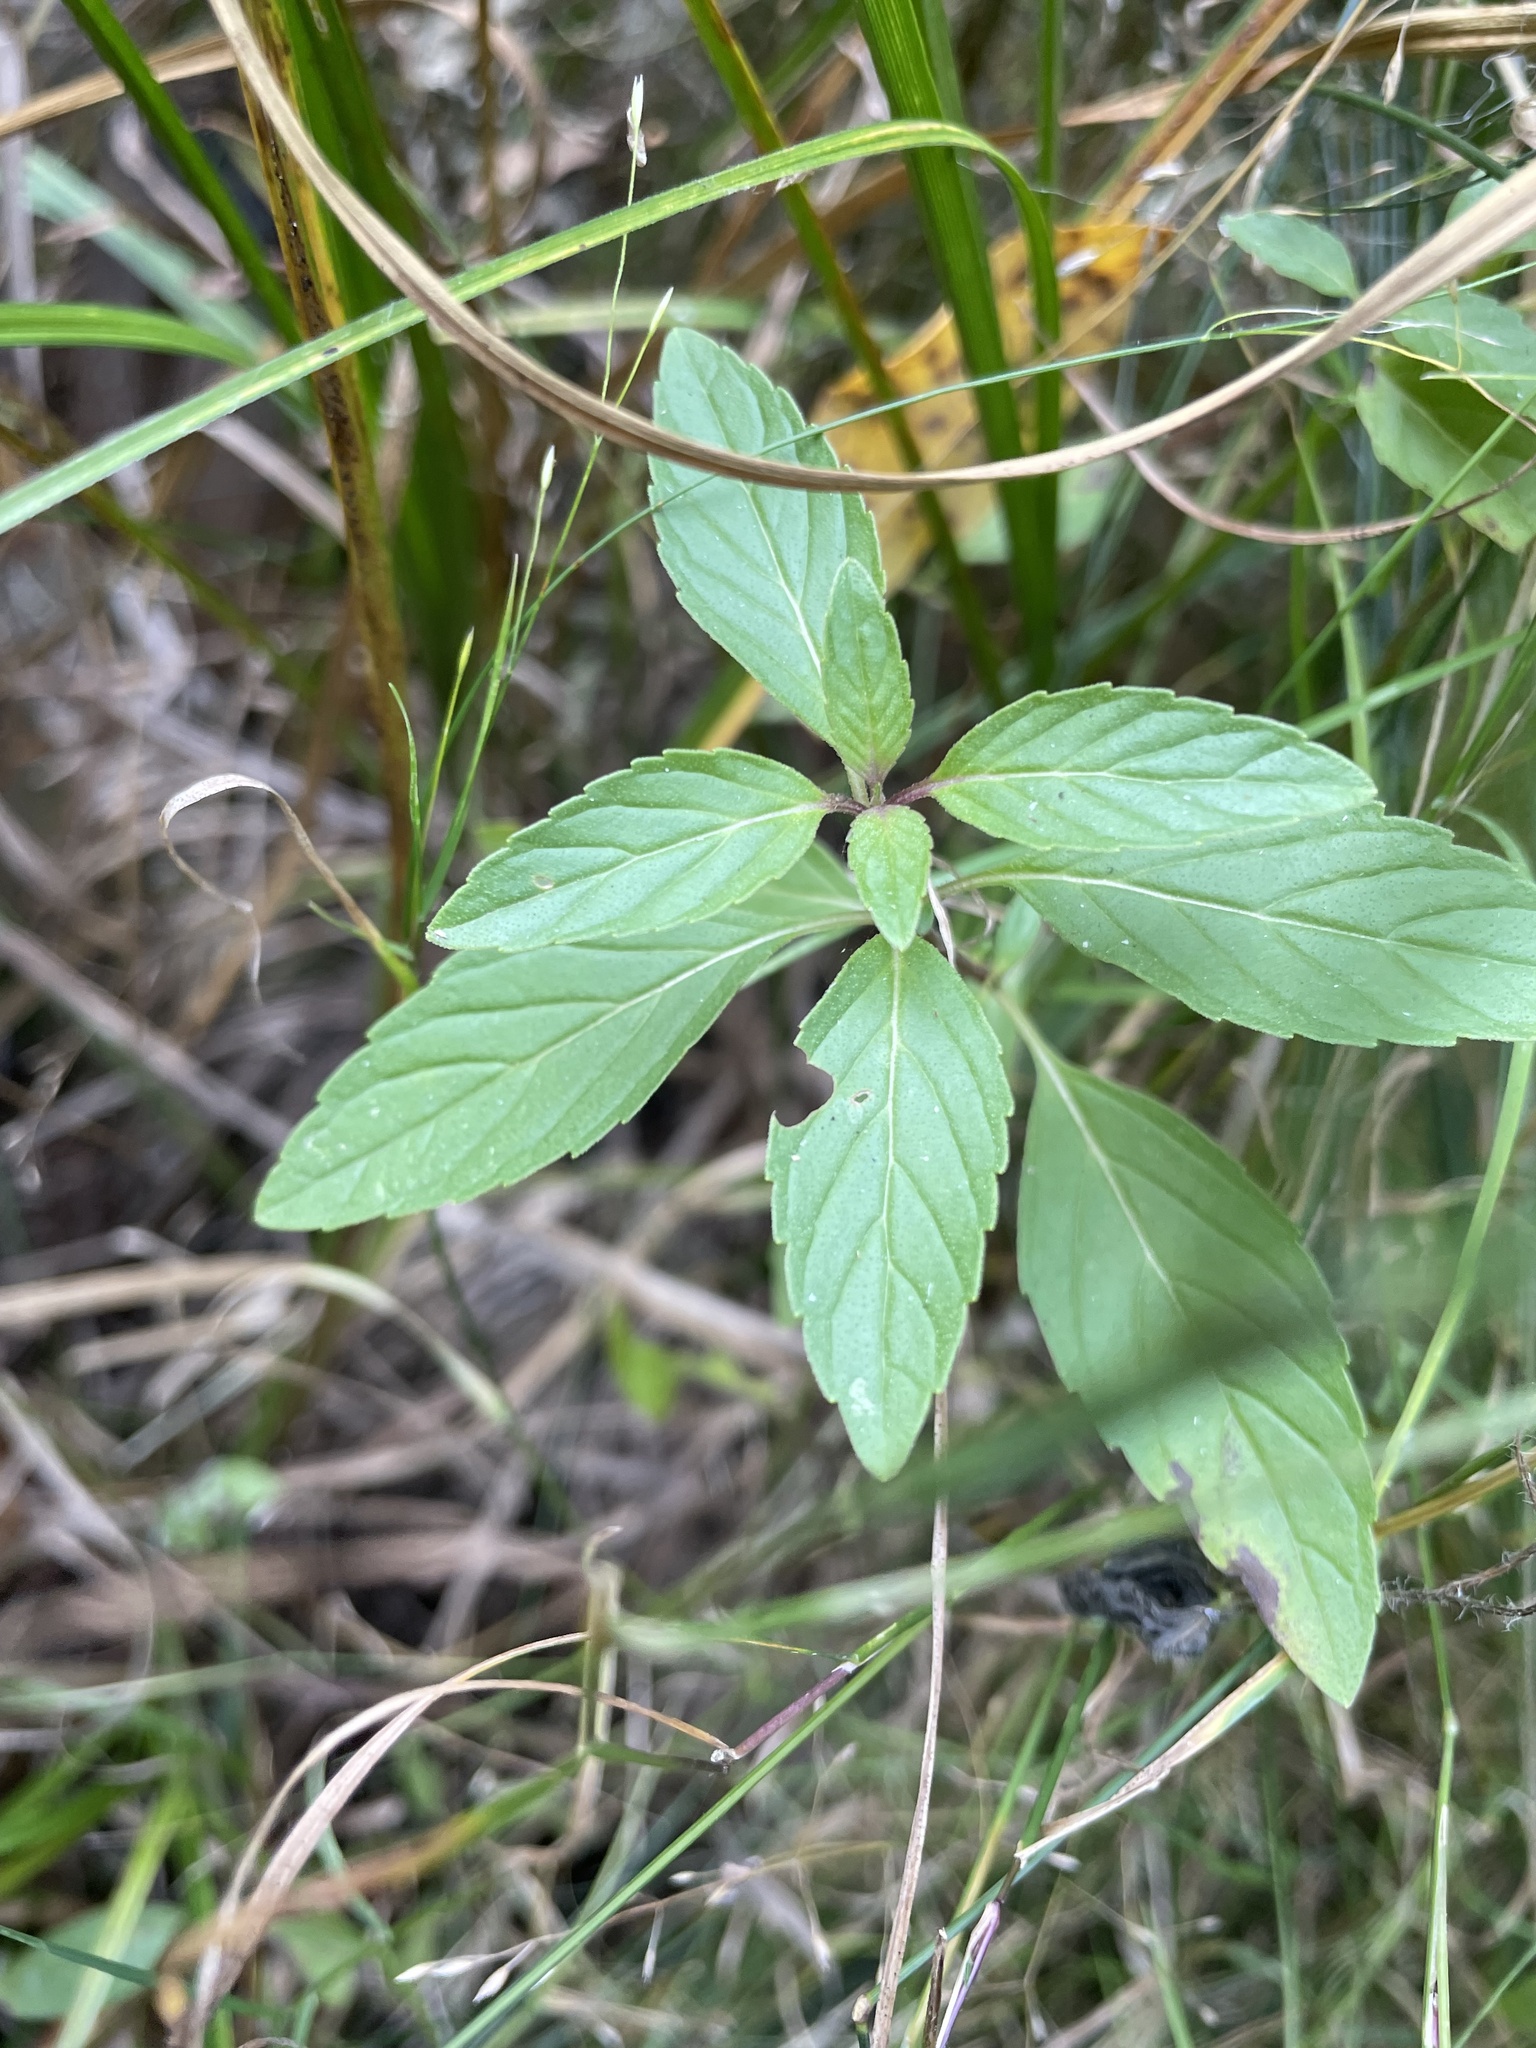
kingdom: Plantae
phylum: Tracheophyta
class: Magnoliopsida
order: Lamiales
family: Lamiaceae
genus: Mentha
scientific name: Mentha canadensis
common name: American corn mint
